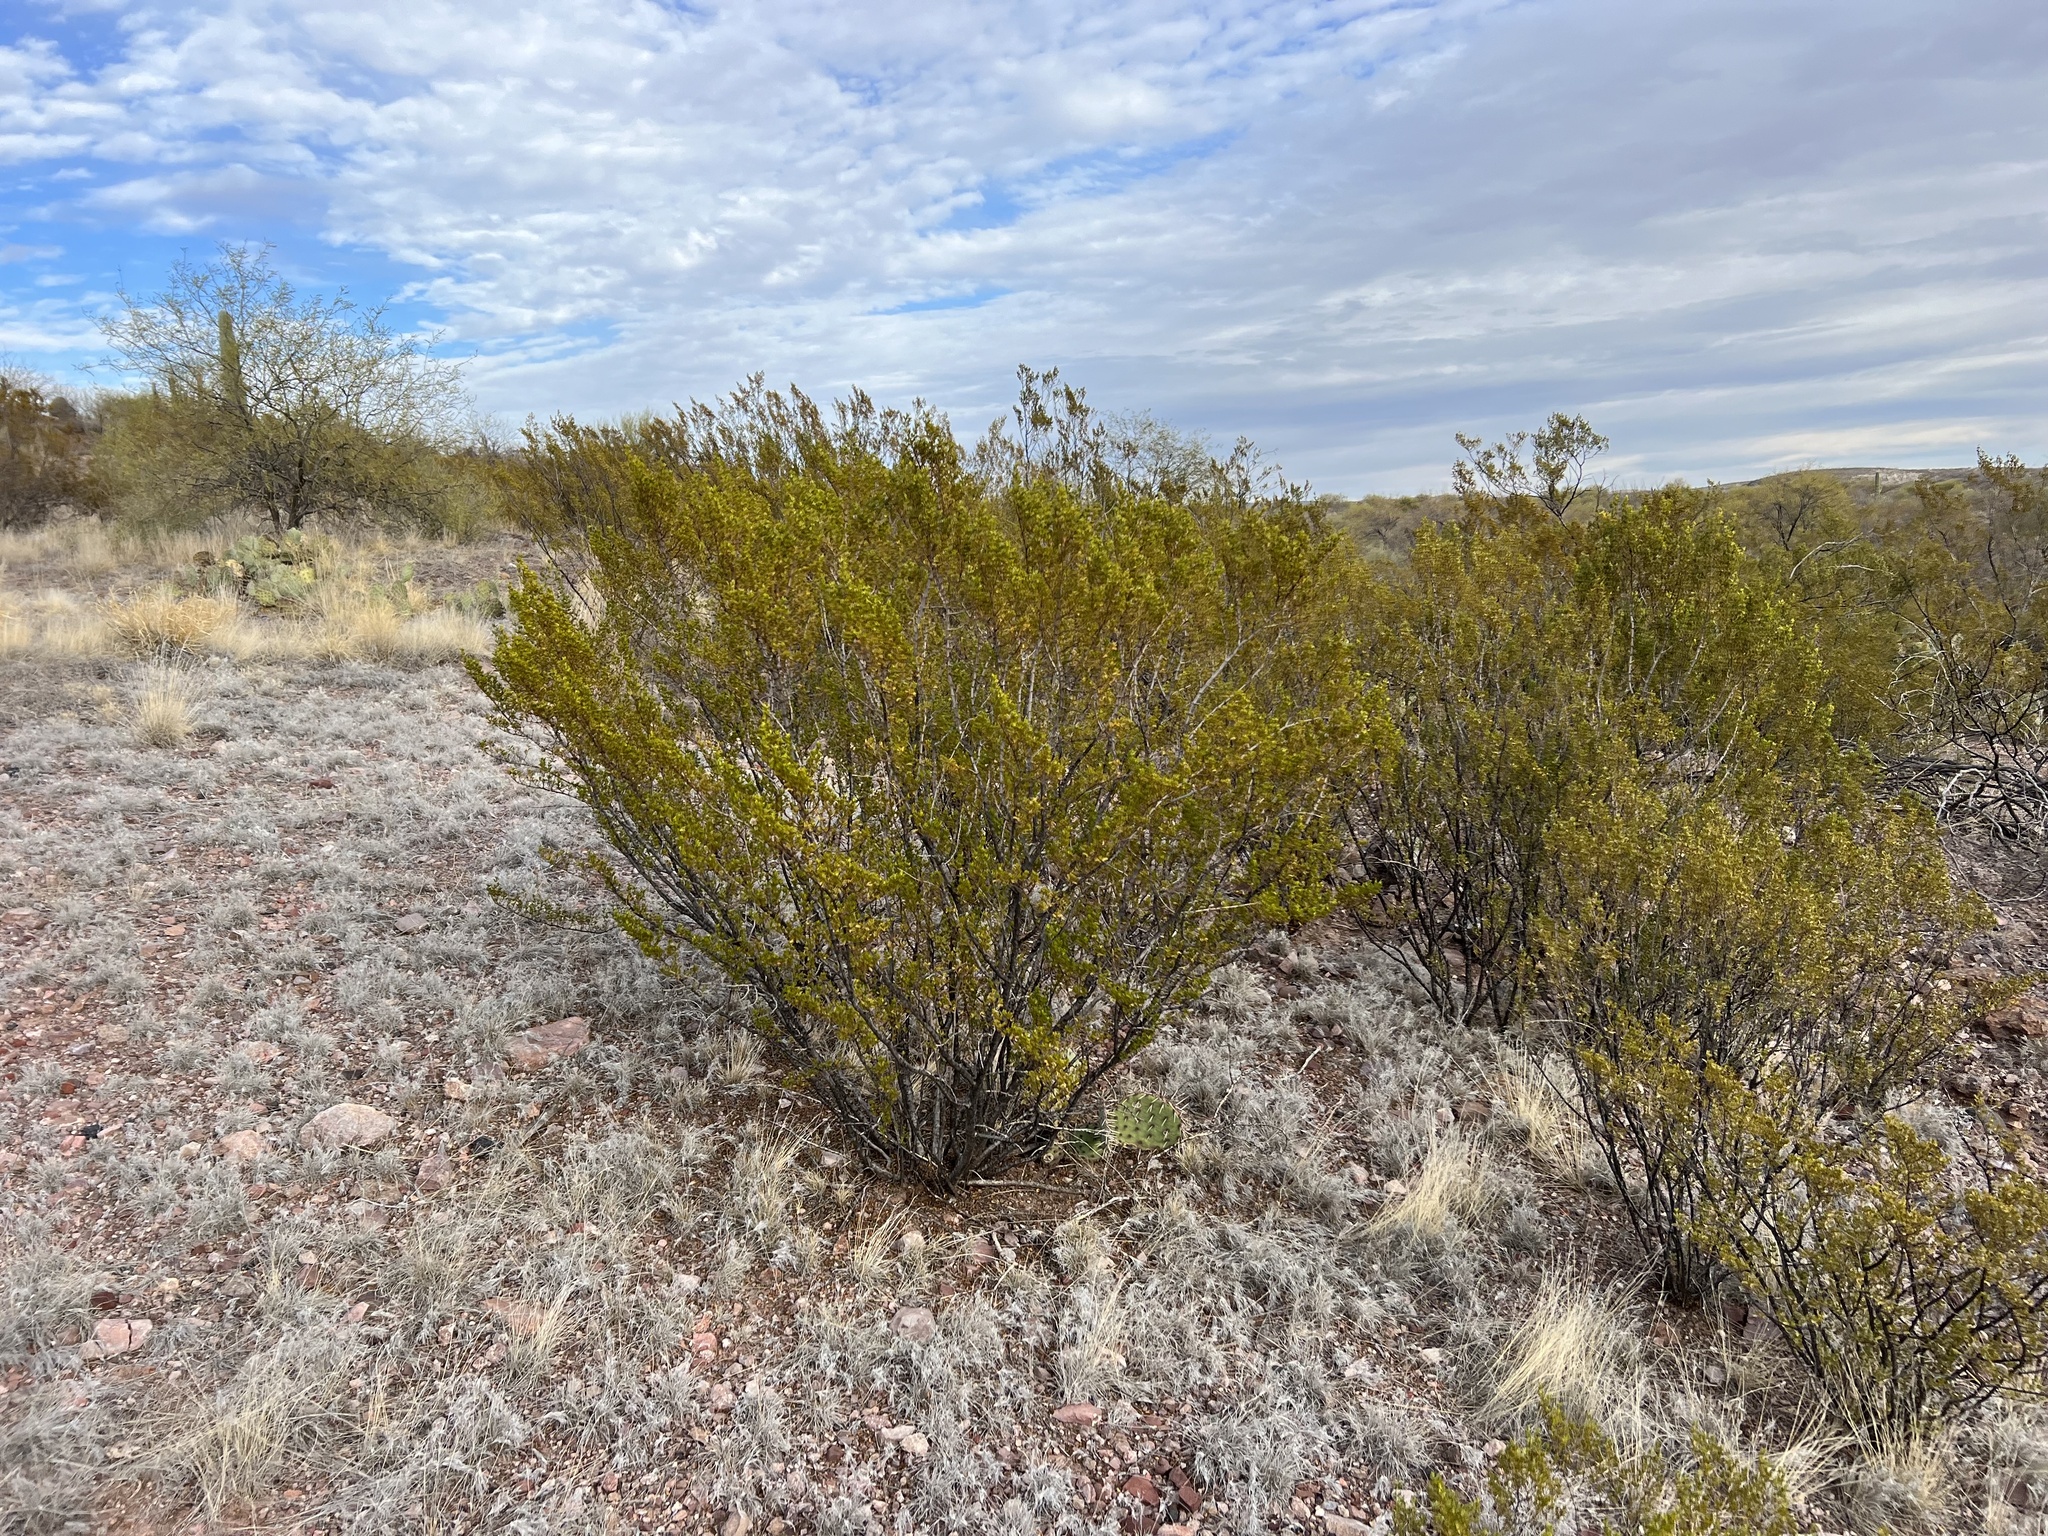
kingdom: Plantae
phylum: Tracheophyta
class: Magnoliopsida
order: Zygophyllales
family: Zygophyllaceae
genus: Larrea
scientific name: Larrea tridentata
